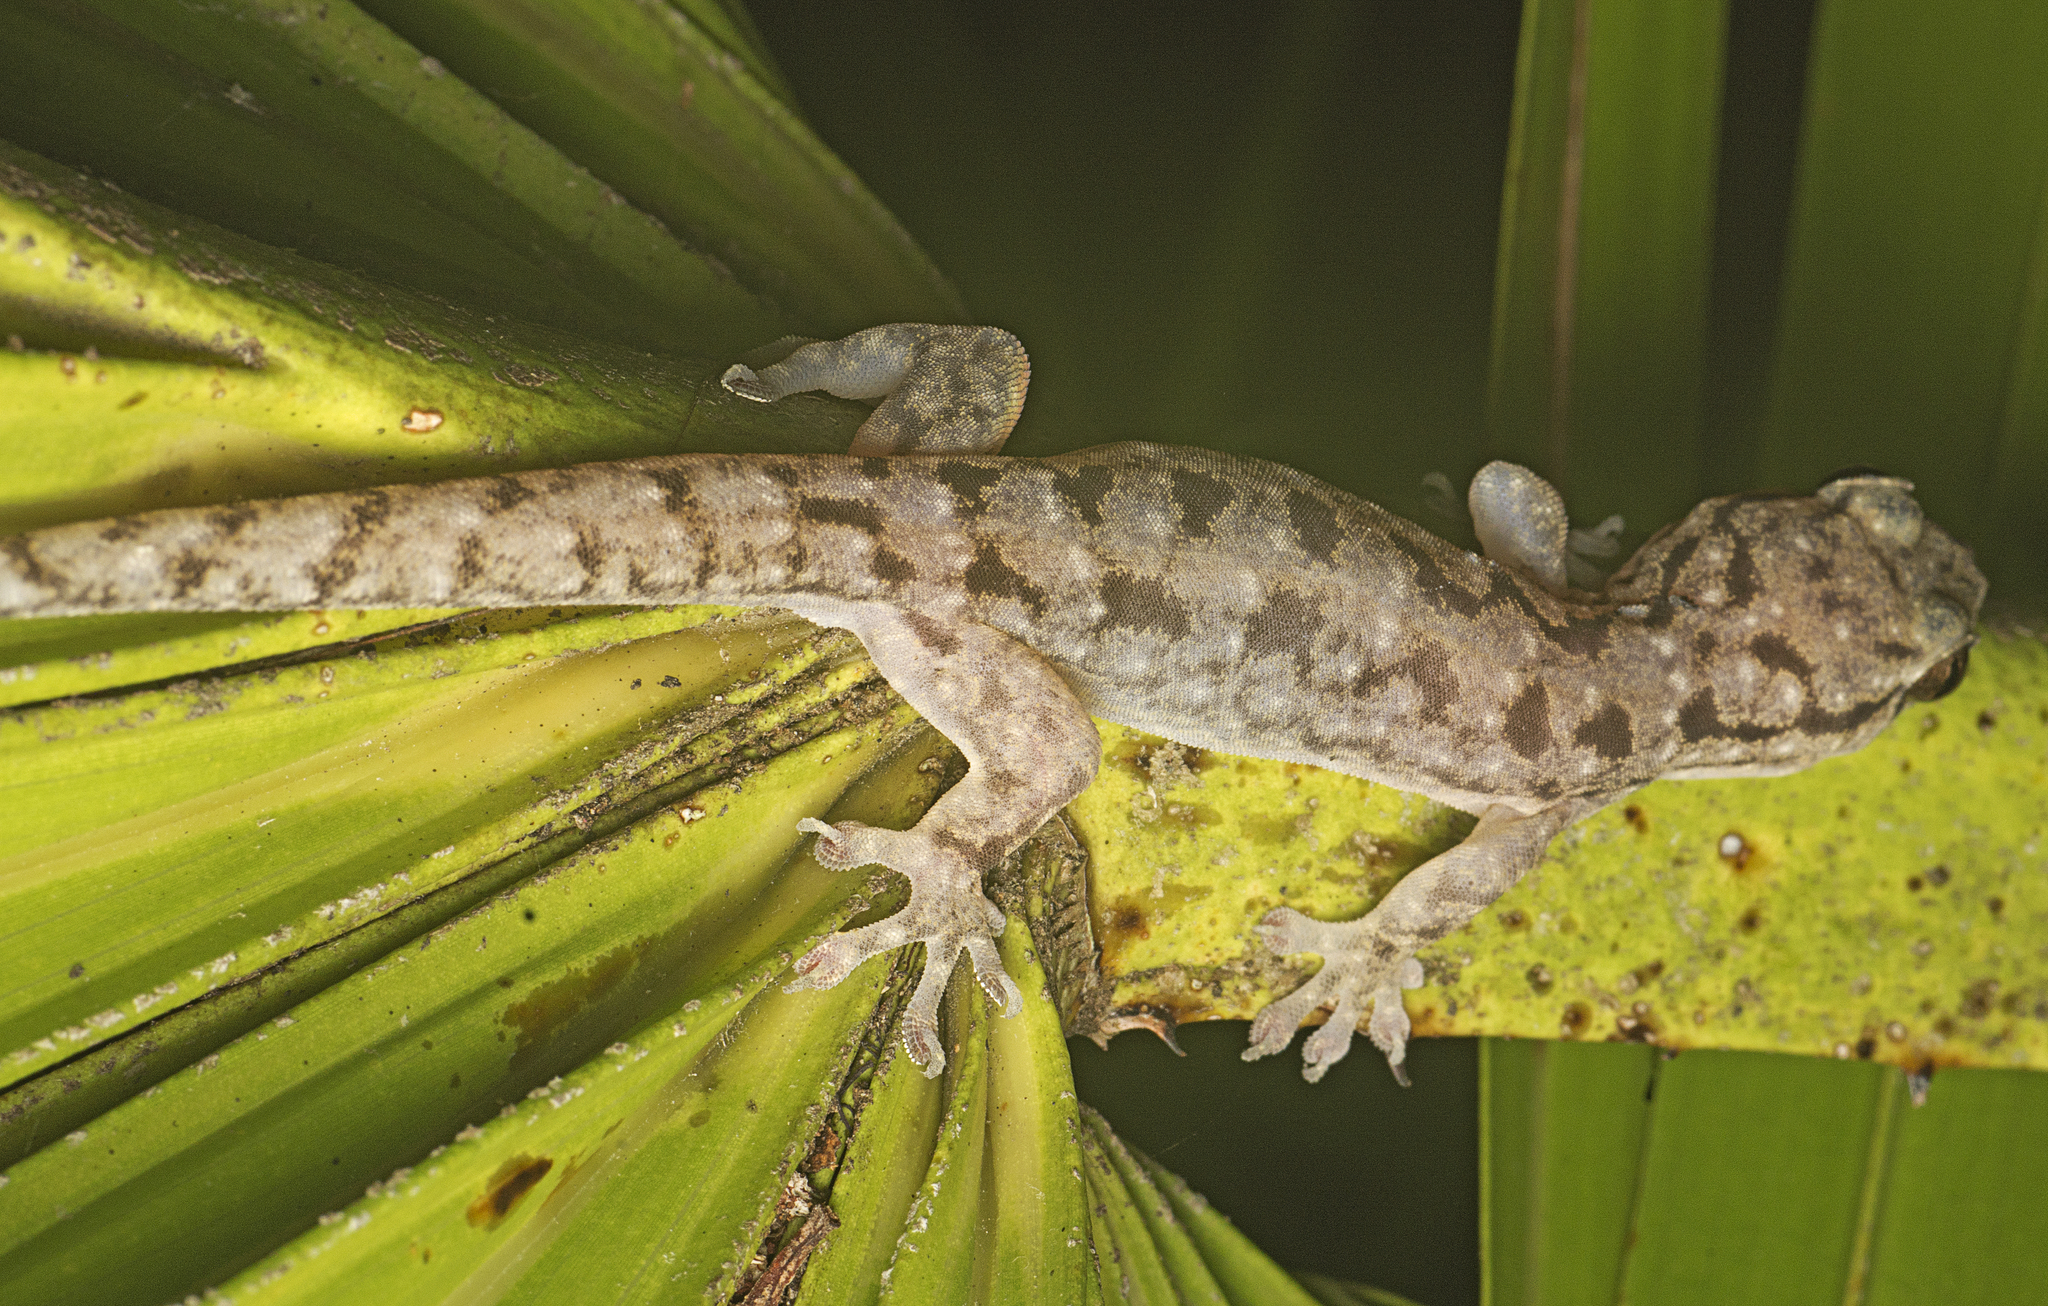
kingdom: Animalia
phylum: Chordata
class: Squamata
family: Gekkonidae
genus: Gehyra
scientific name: Gehyra dubia
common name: Dubious dtella
